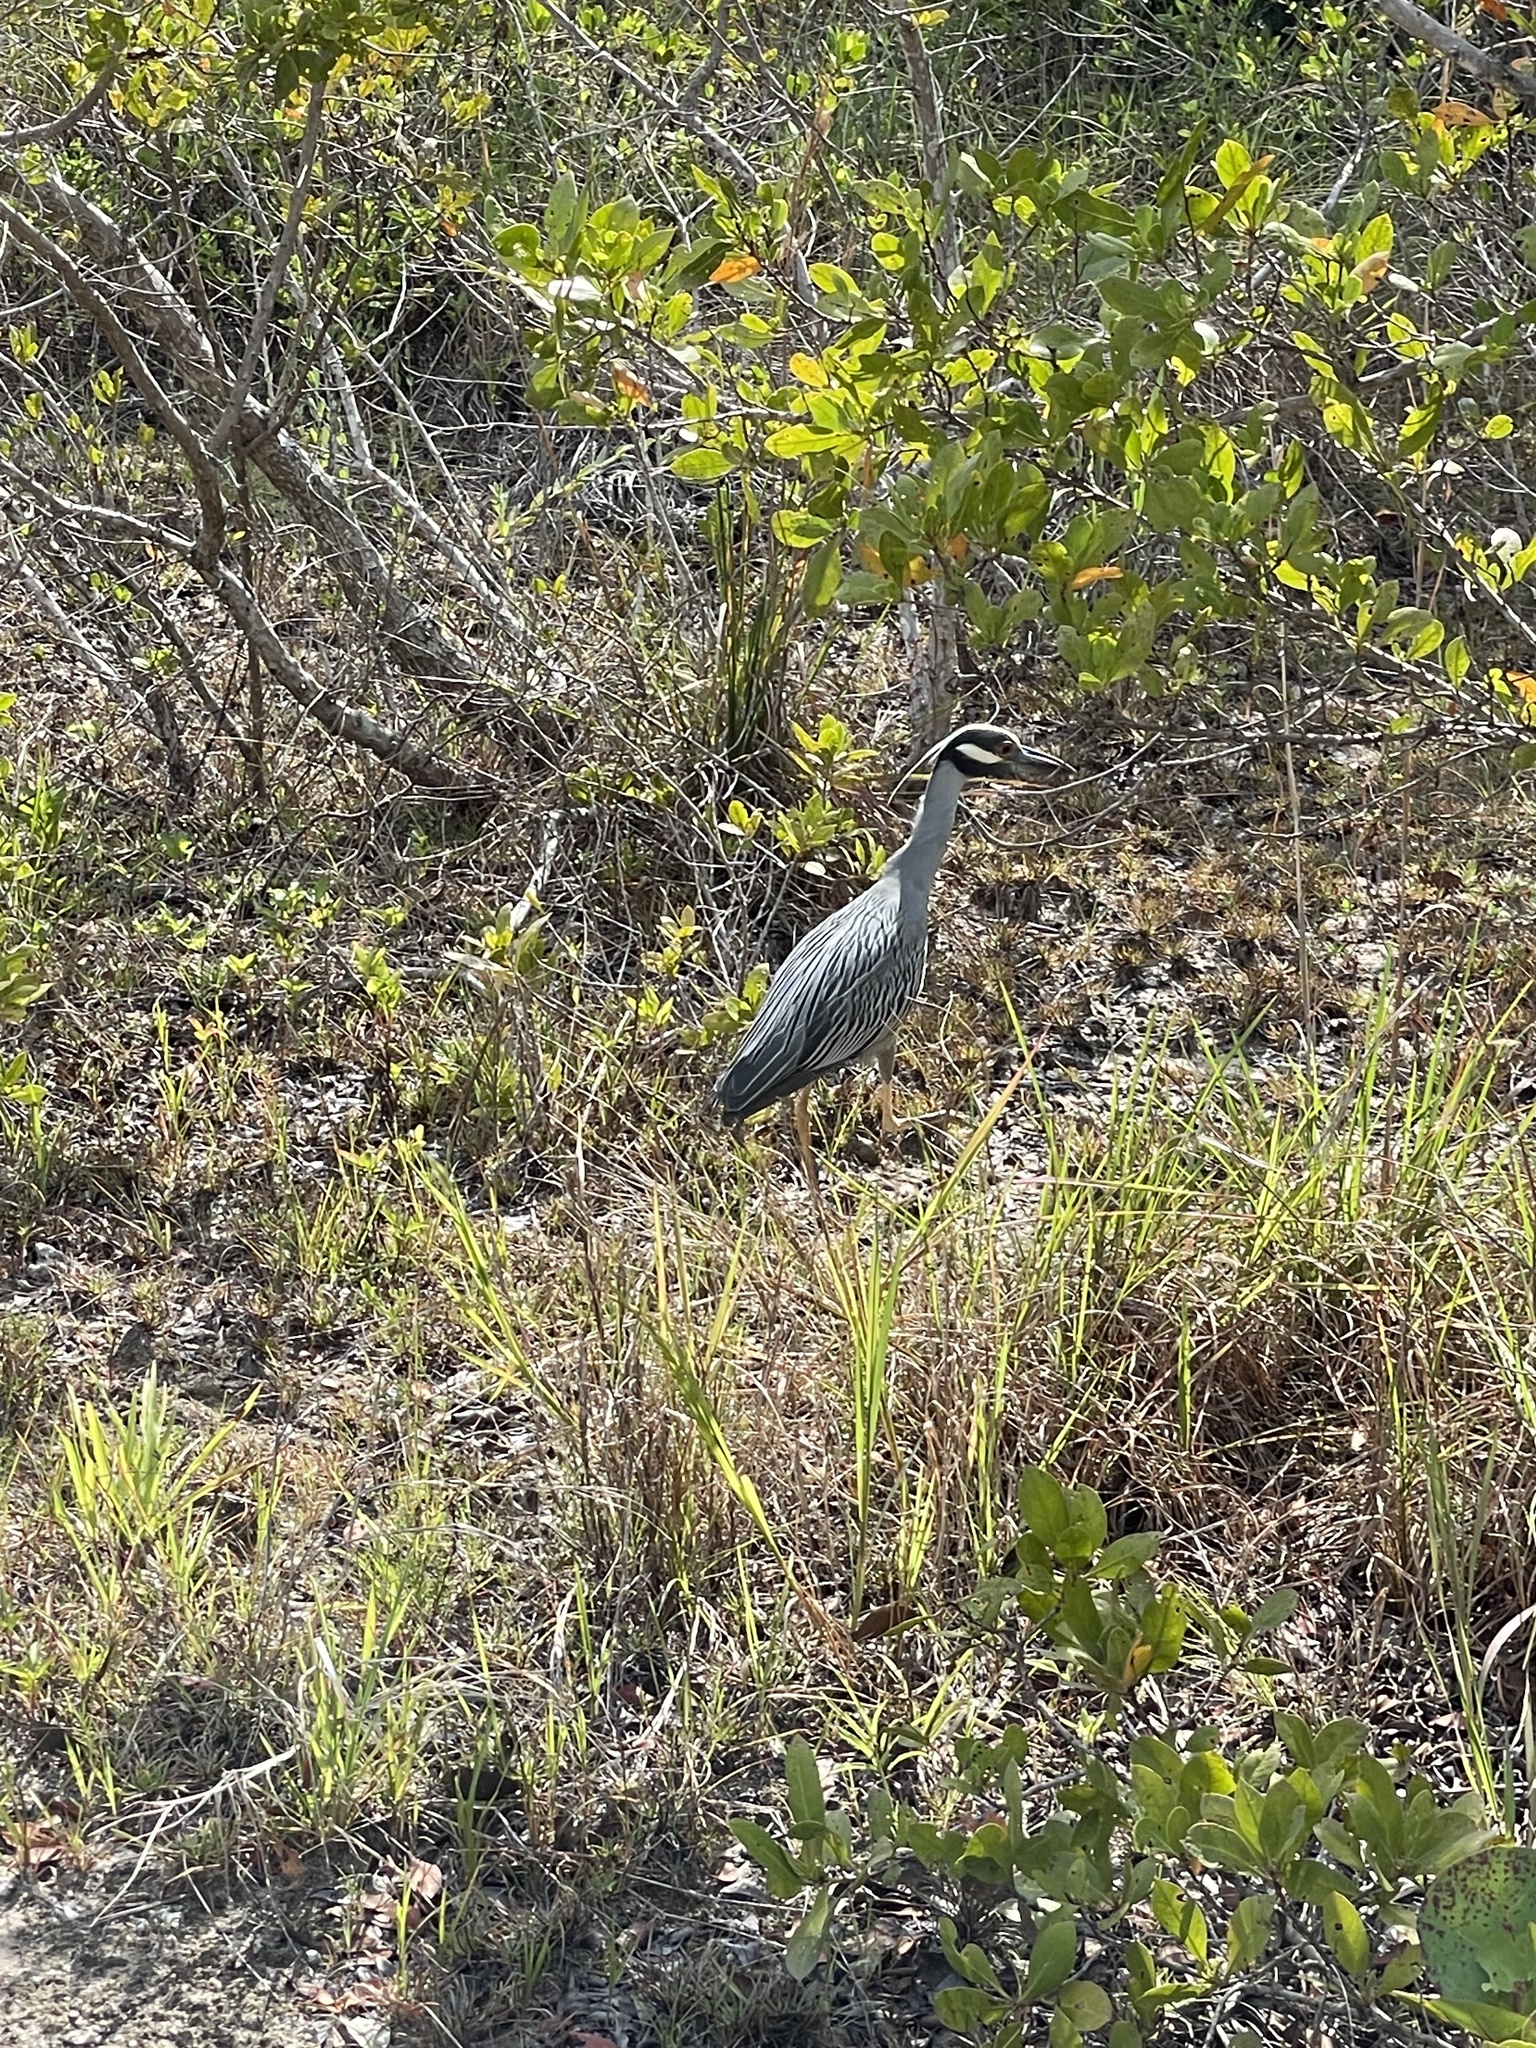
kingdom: Animalia
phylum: Chordata
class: Aves
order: Pelecaniformes
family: Ardeidae
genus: Nyctanassa
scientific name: Nyctanassa violacea
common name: Yellow-crowned night heron
